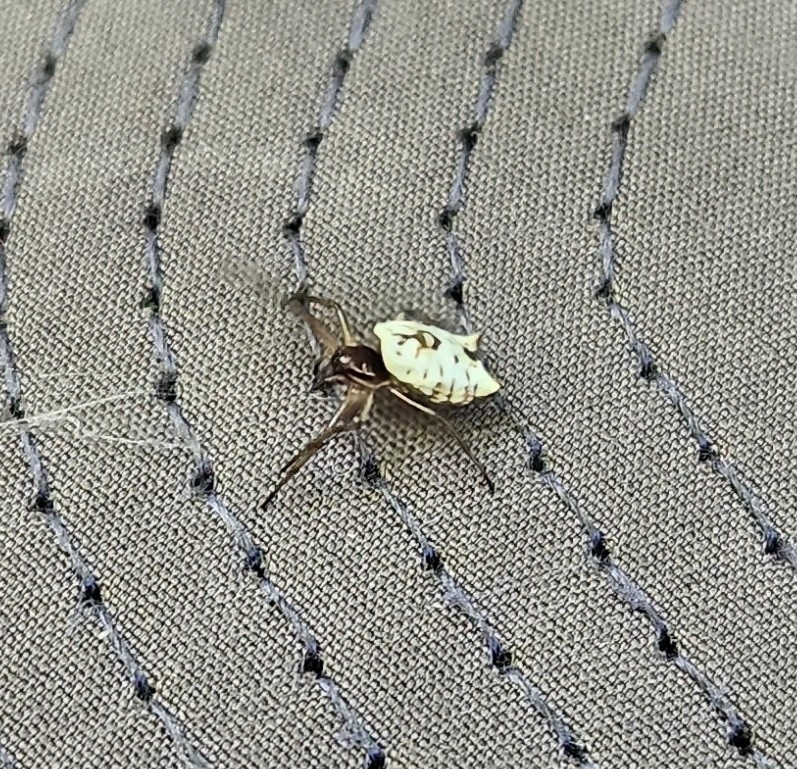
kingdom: Animalia
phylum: Arthropoda
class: Arachnida
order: Araneae
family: Araneidae
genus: Micrathena
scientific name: Micrathena mitrata
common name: Orb weavers
